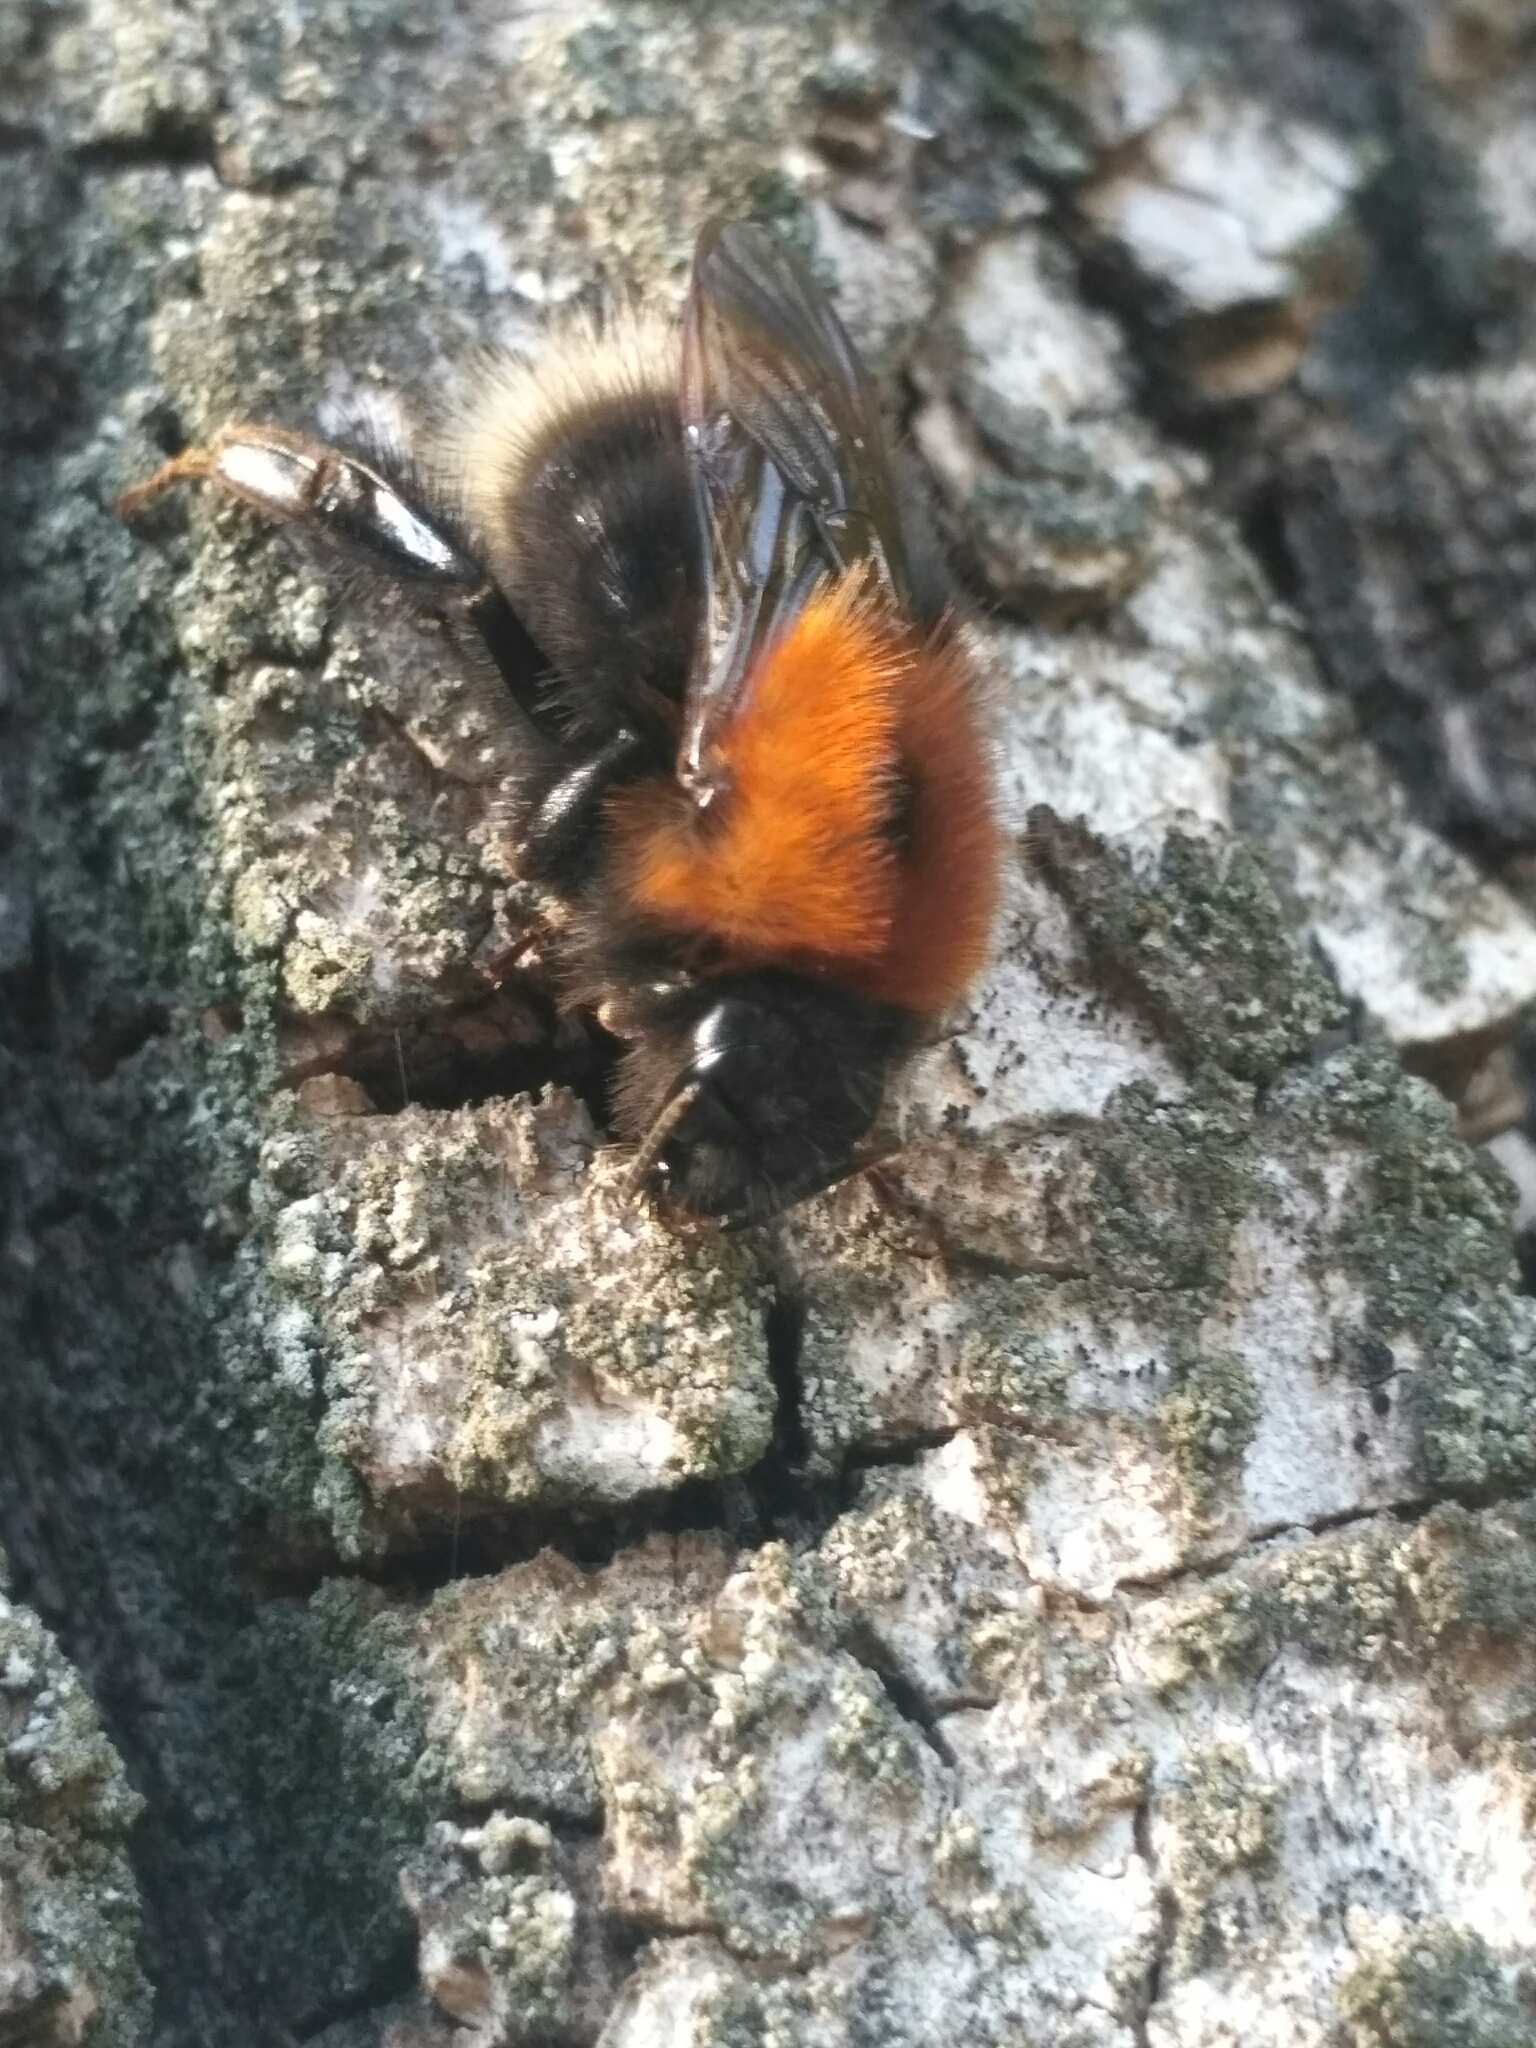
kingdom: Animalia
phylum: Arthropoda
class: Insecta
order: Hymenoptera
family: Apidae
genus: Bombus
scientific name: Bombus hypnorum
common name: New garden bumblebee
